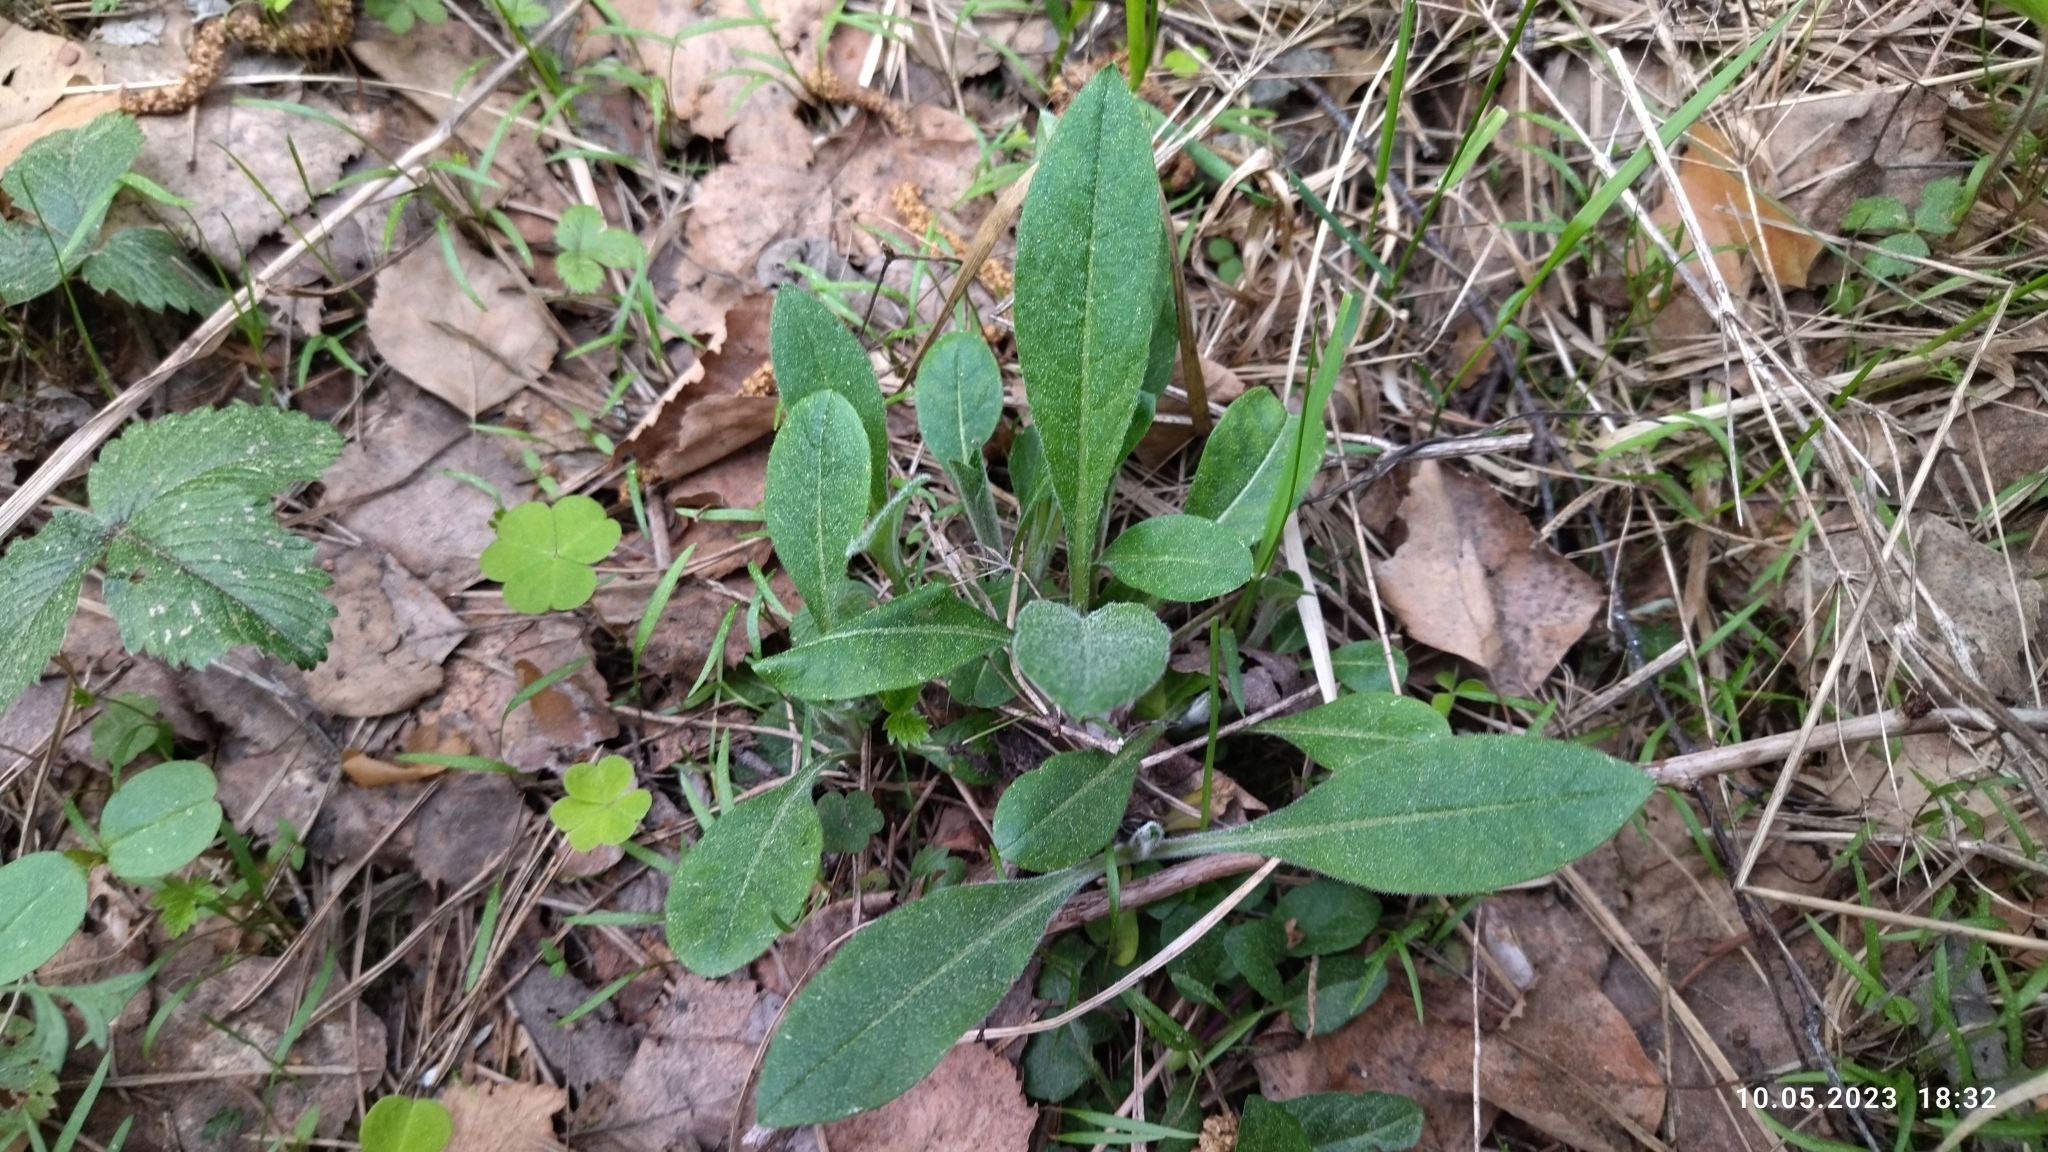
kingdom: Plantae
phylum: Tracheophyta
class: Magnoliopsida
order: Dipsacales
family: Caprifoliaceae
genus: Knautia
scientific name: Knautia arvensis
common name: Field scabiosa
